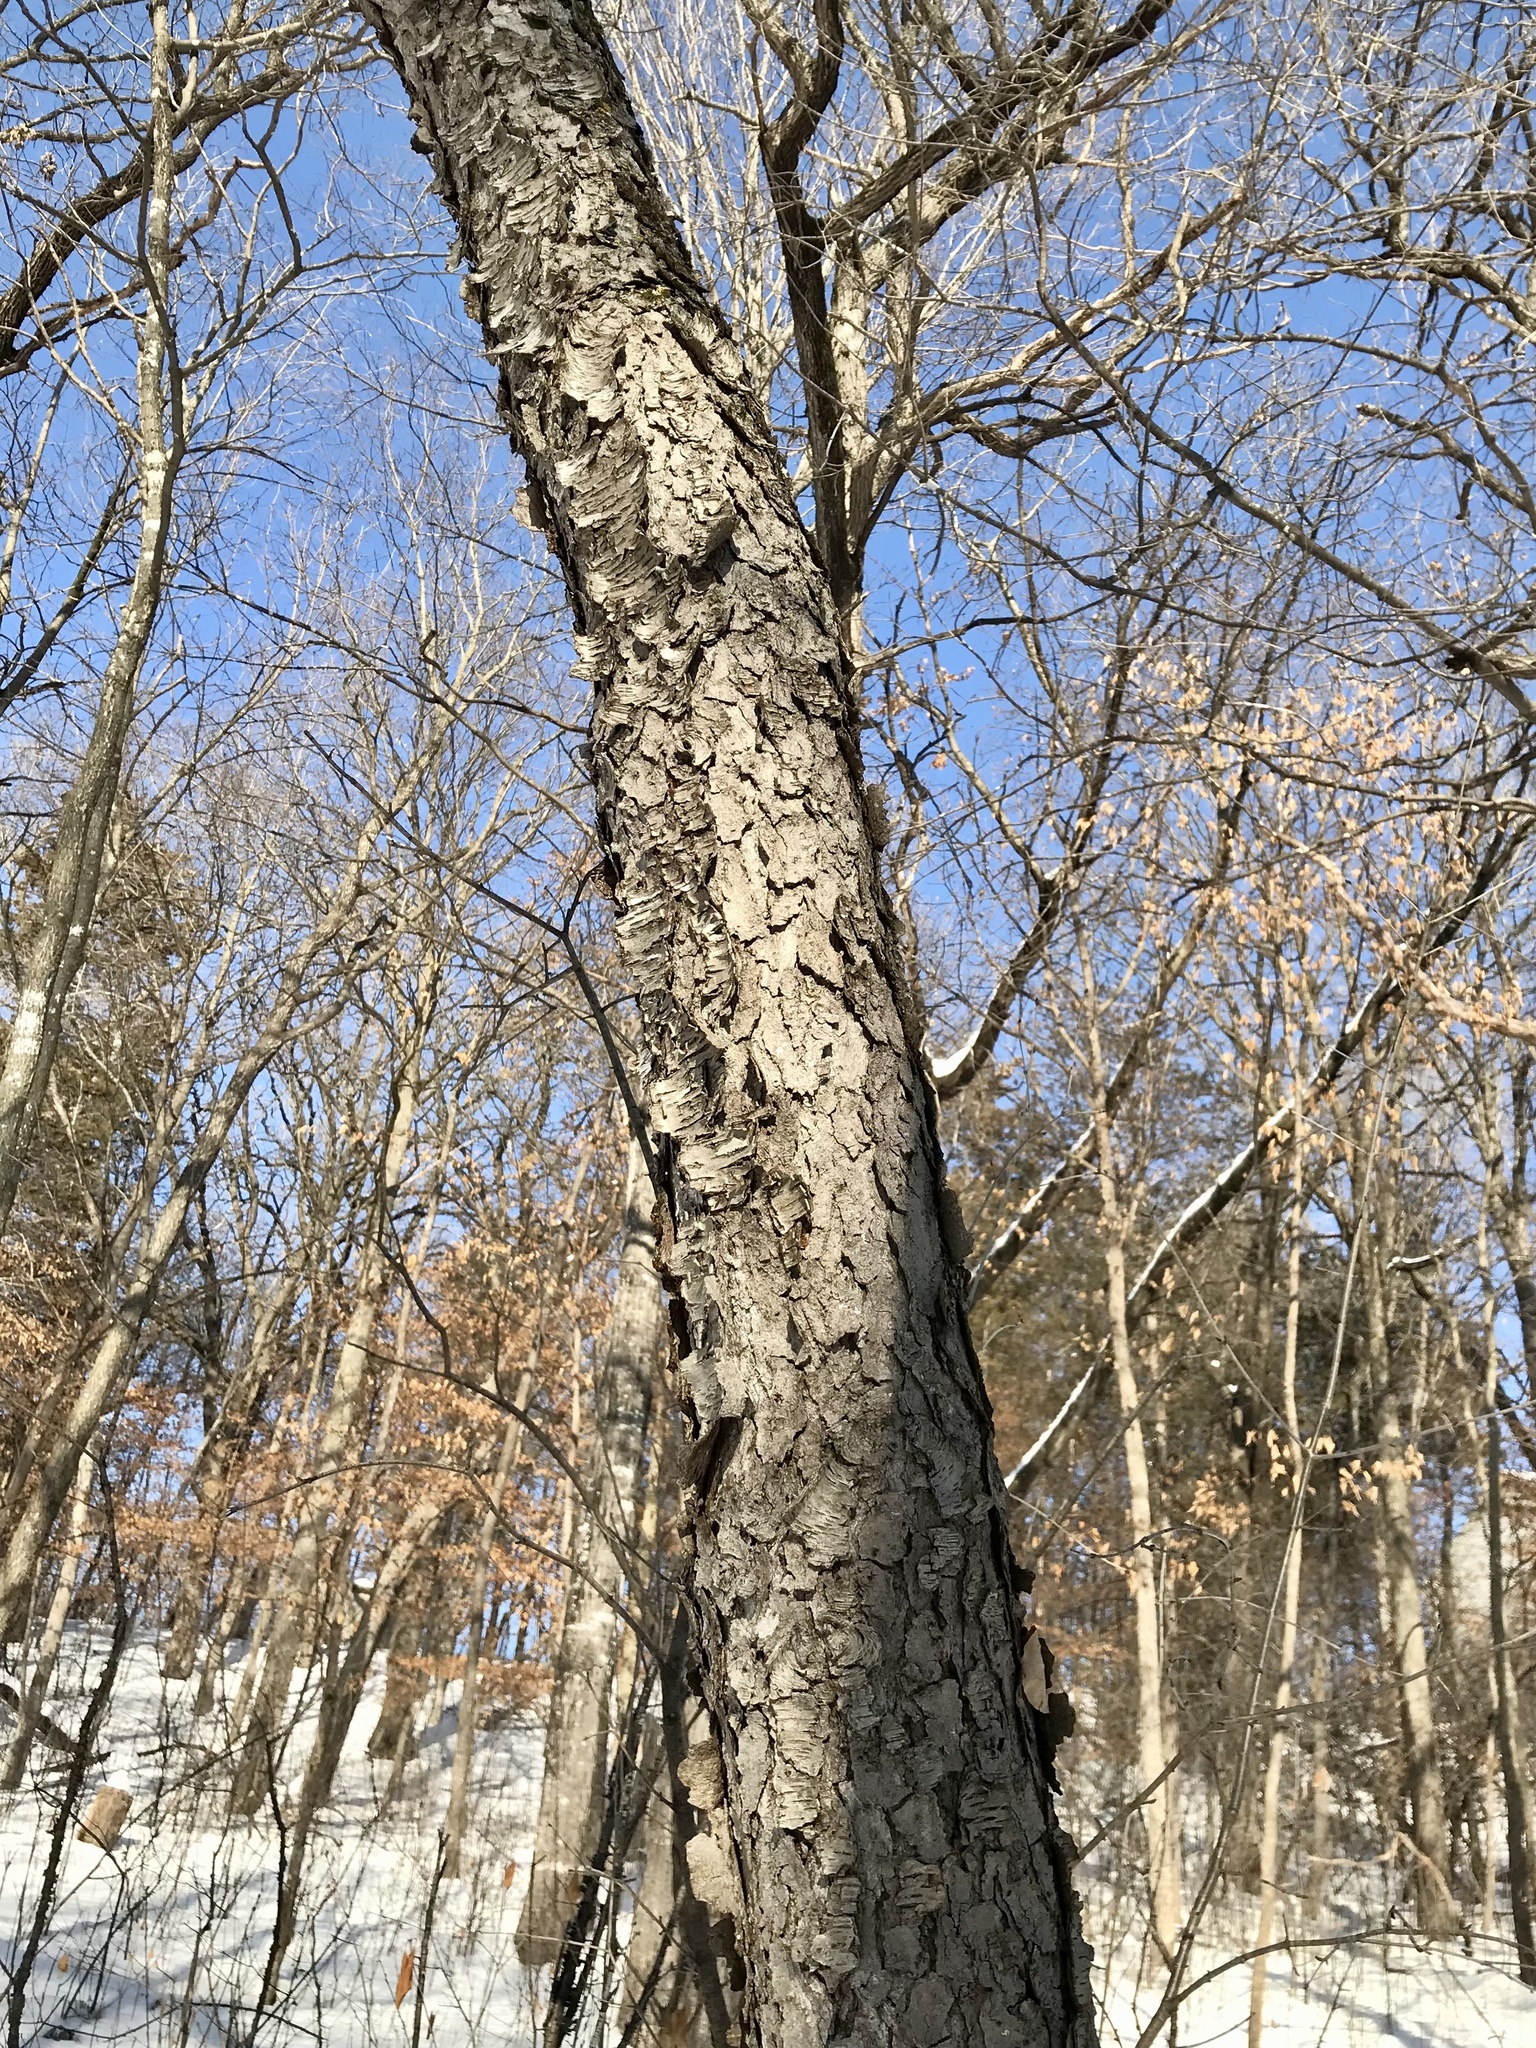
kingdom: Plantae
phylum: Tracheophyta
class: Magnoliopsida
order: Rosales
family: Rosaceae
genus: Prunus
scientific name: Prunus serotina
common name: Black cherry
